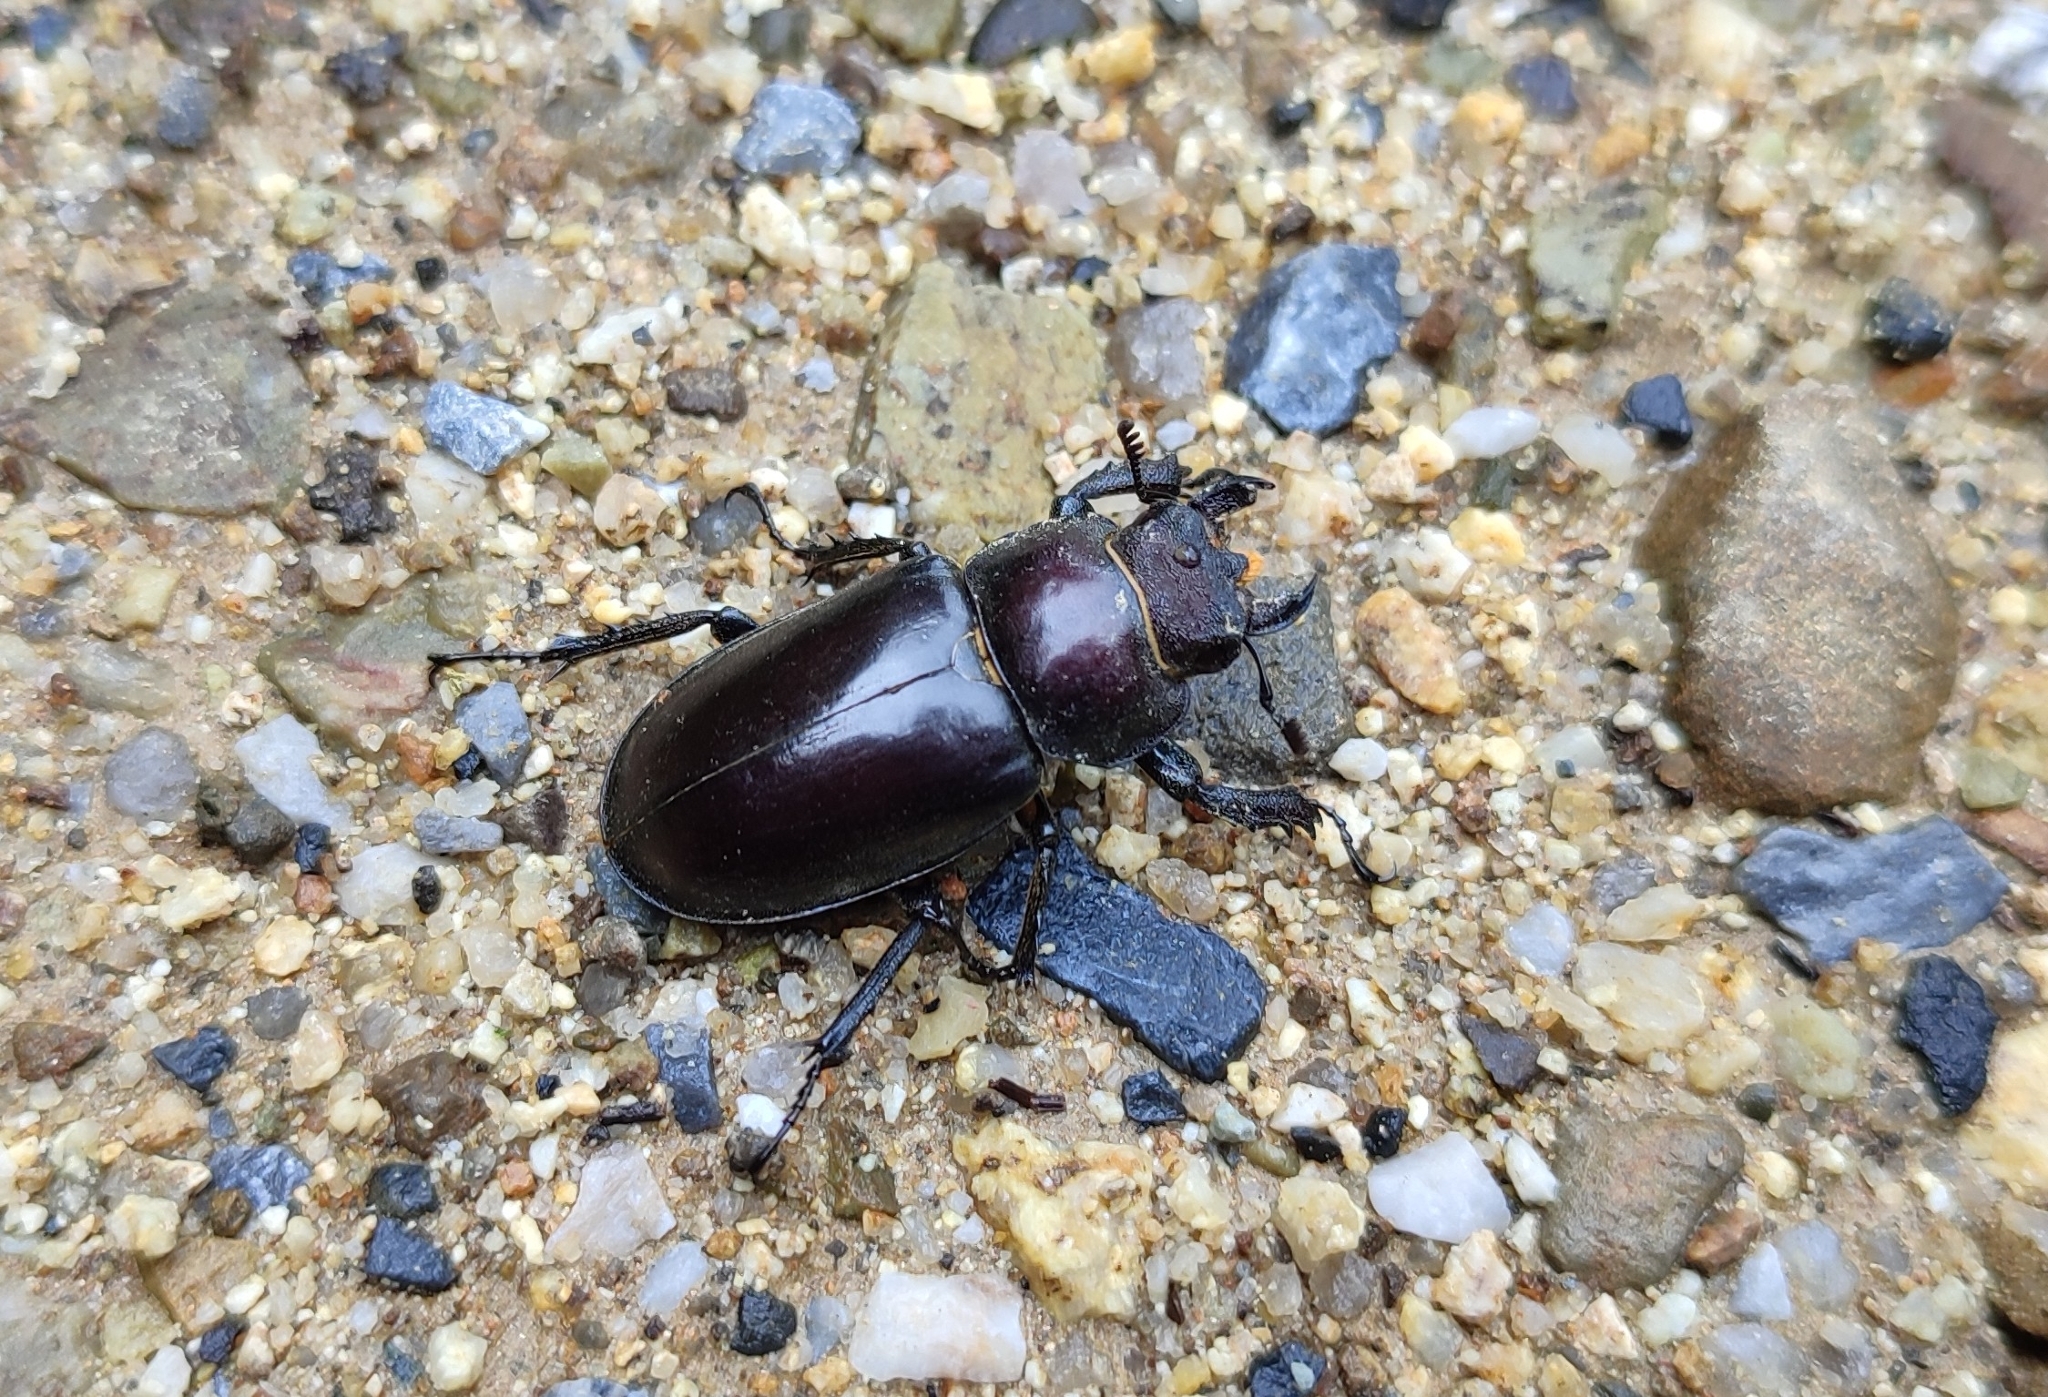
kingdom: Animalia
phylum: Arthropoda
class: Insecta
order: Coleoptera
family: Lucanidae
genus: Lucanus
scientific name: Lucanus maculifemoratus
